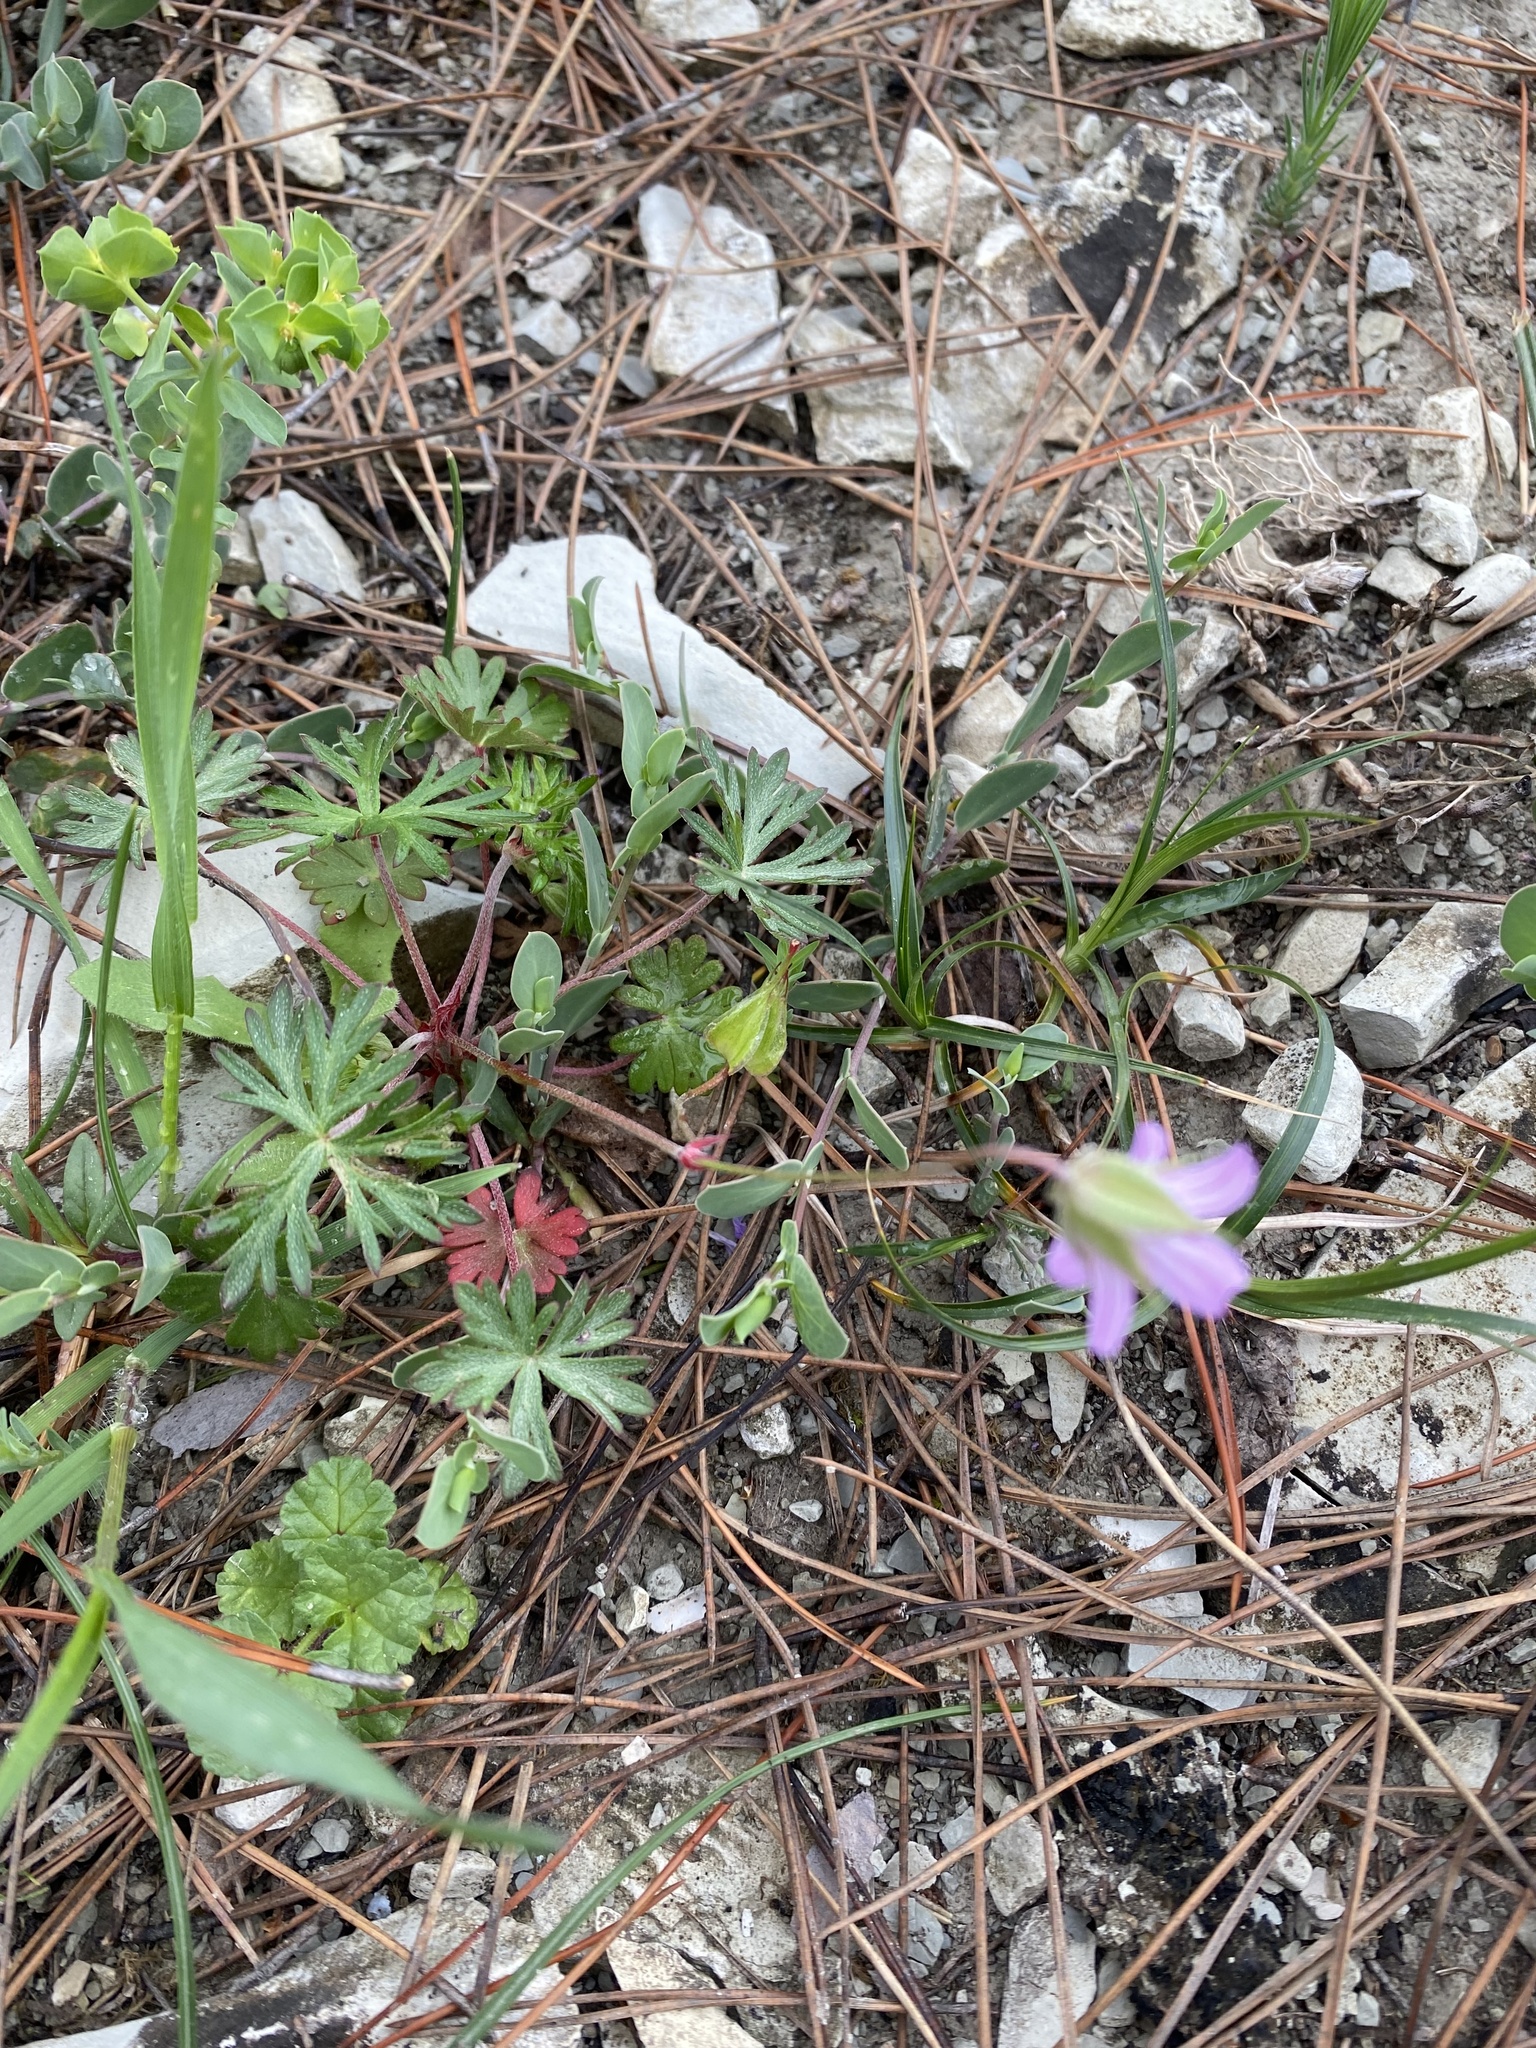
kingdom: Plantae
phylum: Tracheophyta
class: Magnoliopsida
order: Geraniales
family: Geraniaceae
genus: Geranium
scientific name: Geranium columbinum
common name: Long-stalked crane's-bill
